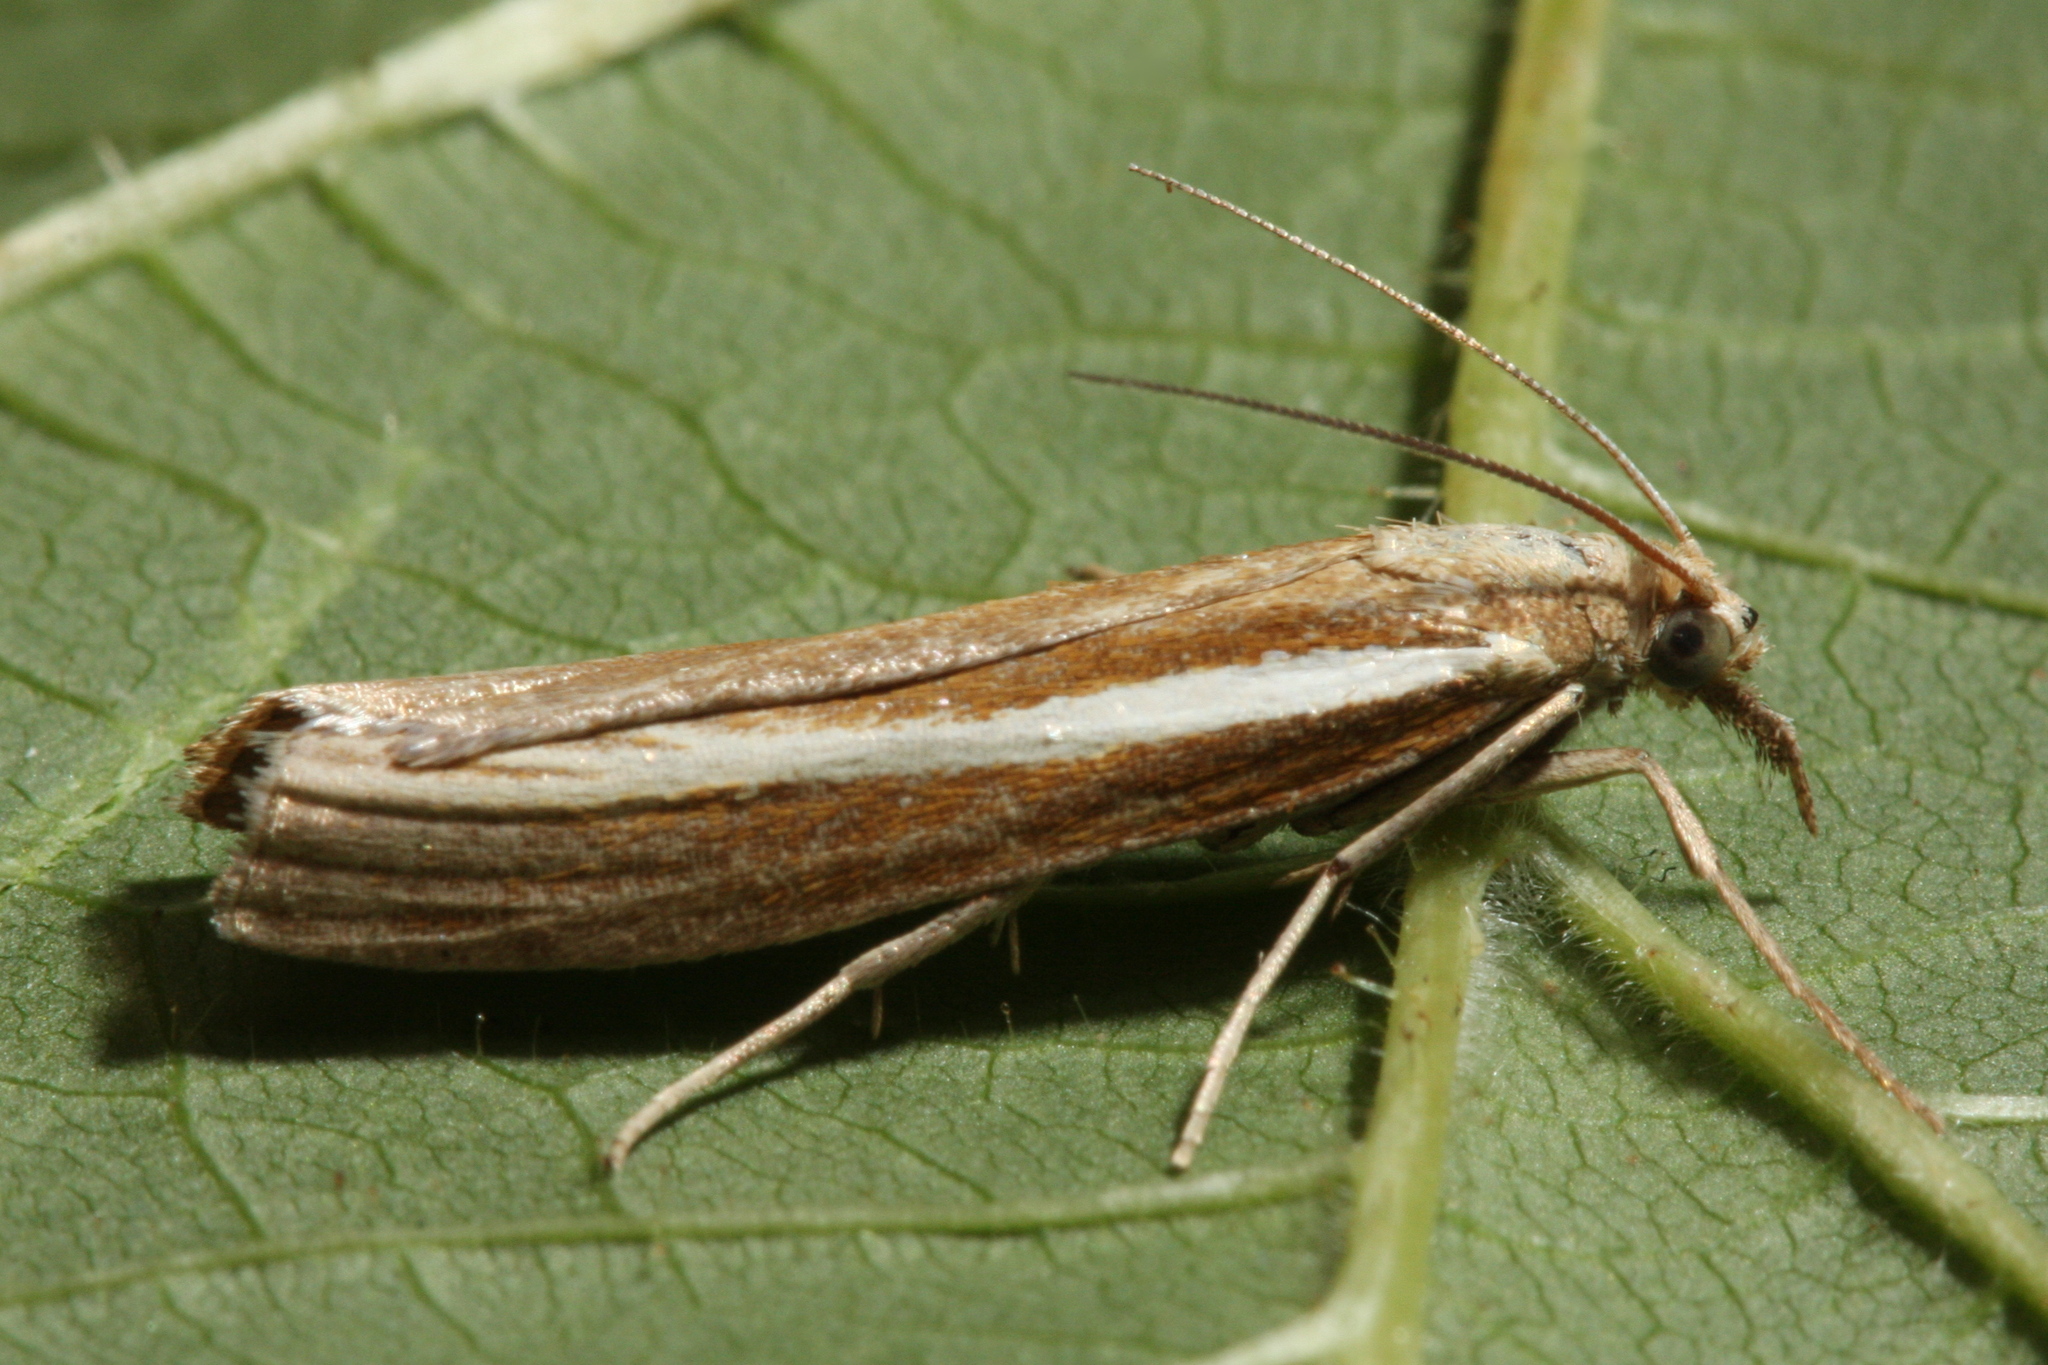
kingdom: Animalia
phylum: Arthropoda
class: Insecta
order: Lepidoptera
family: Crambidae
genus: Agriphila
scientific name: Agriphila tristellus
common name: Common grass-veneer
